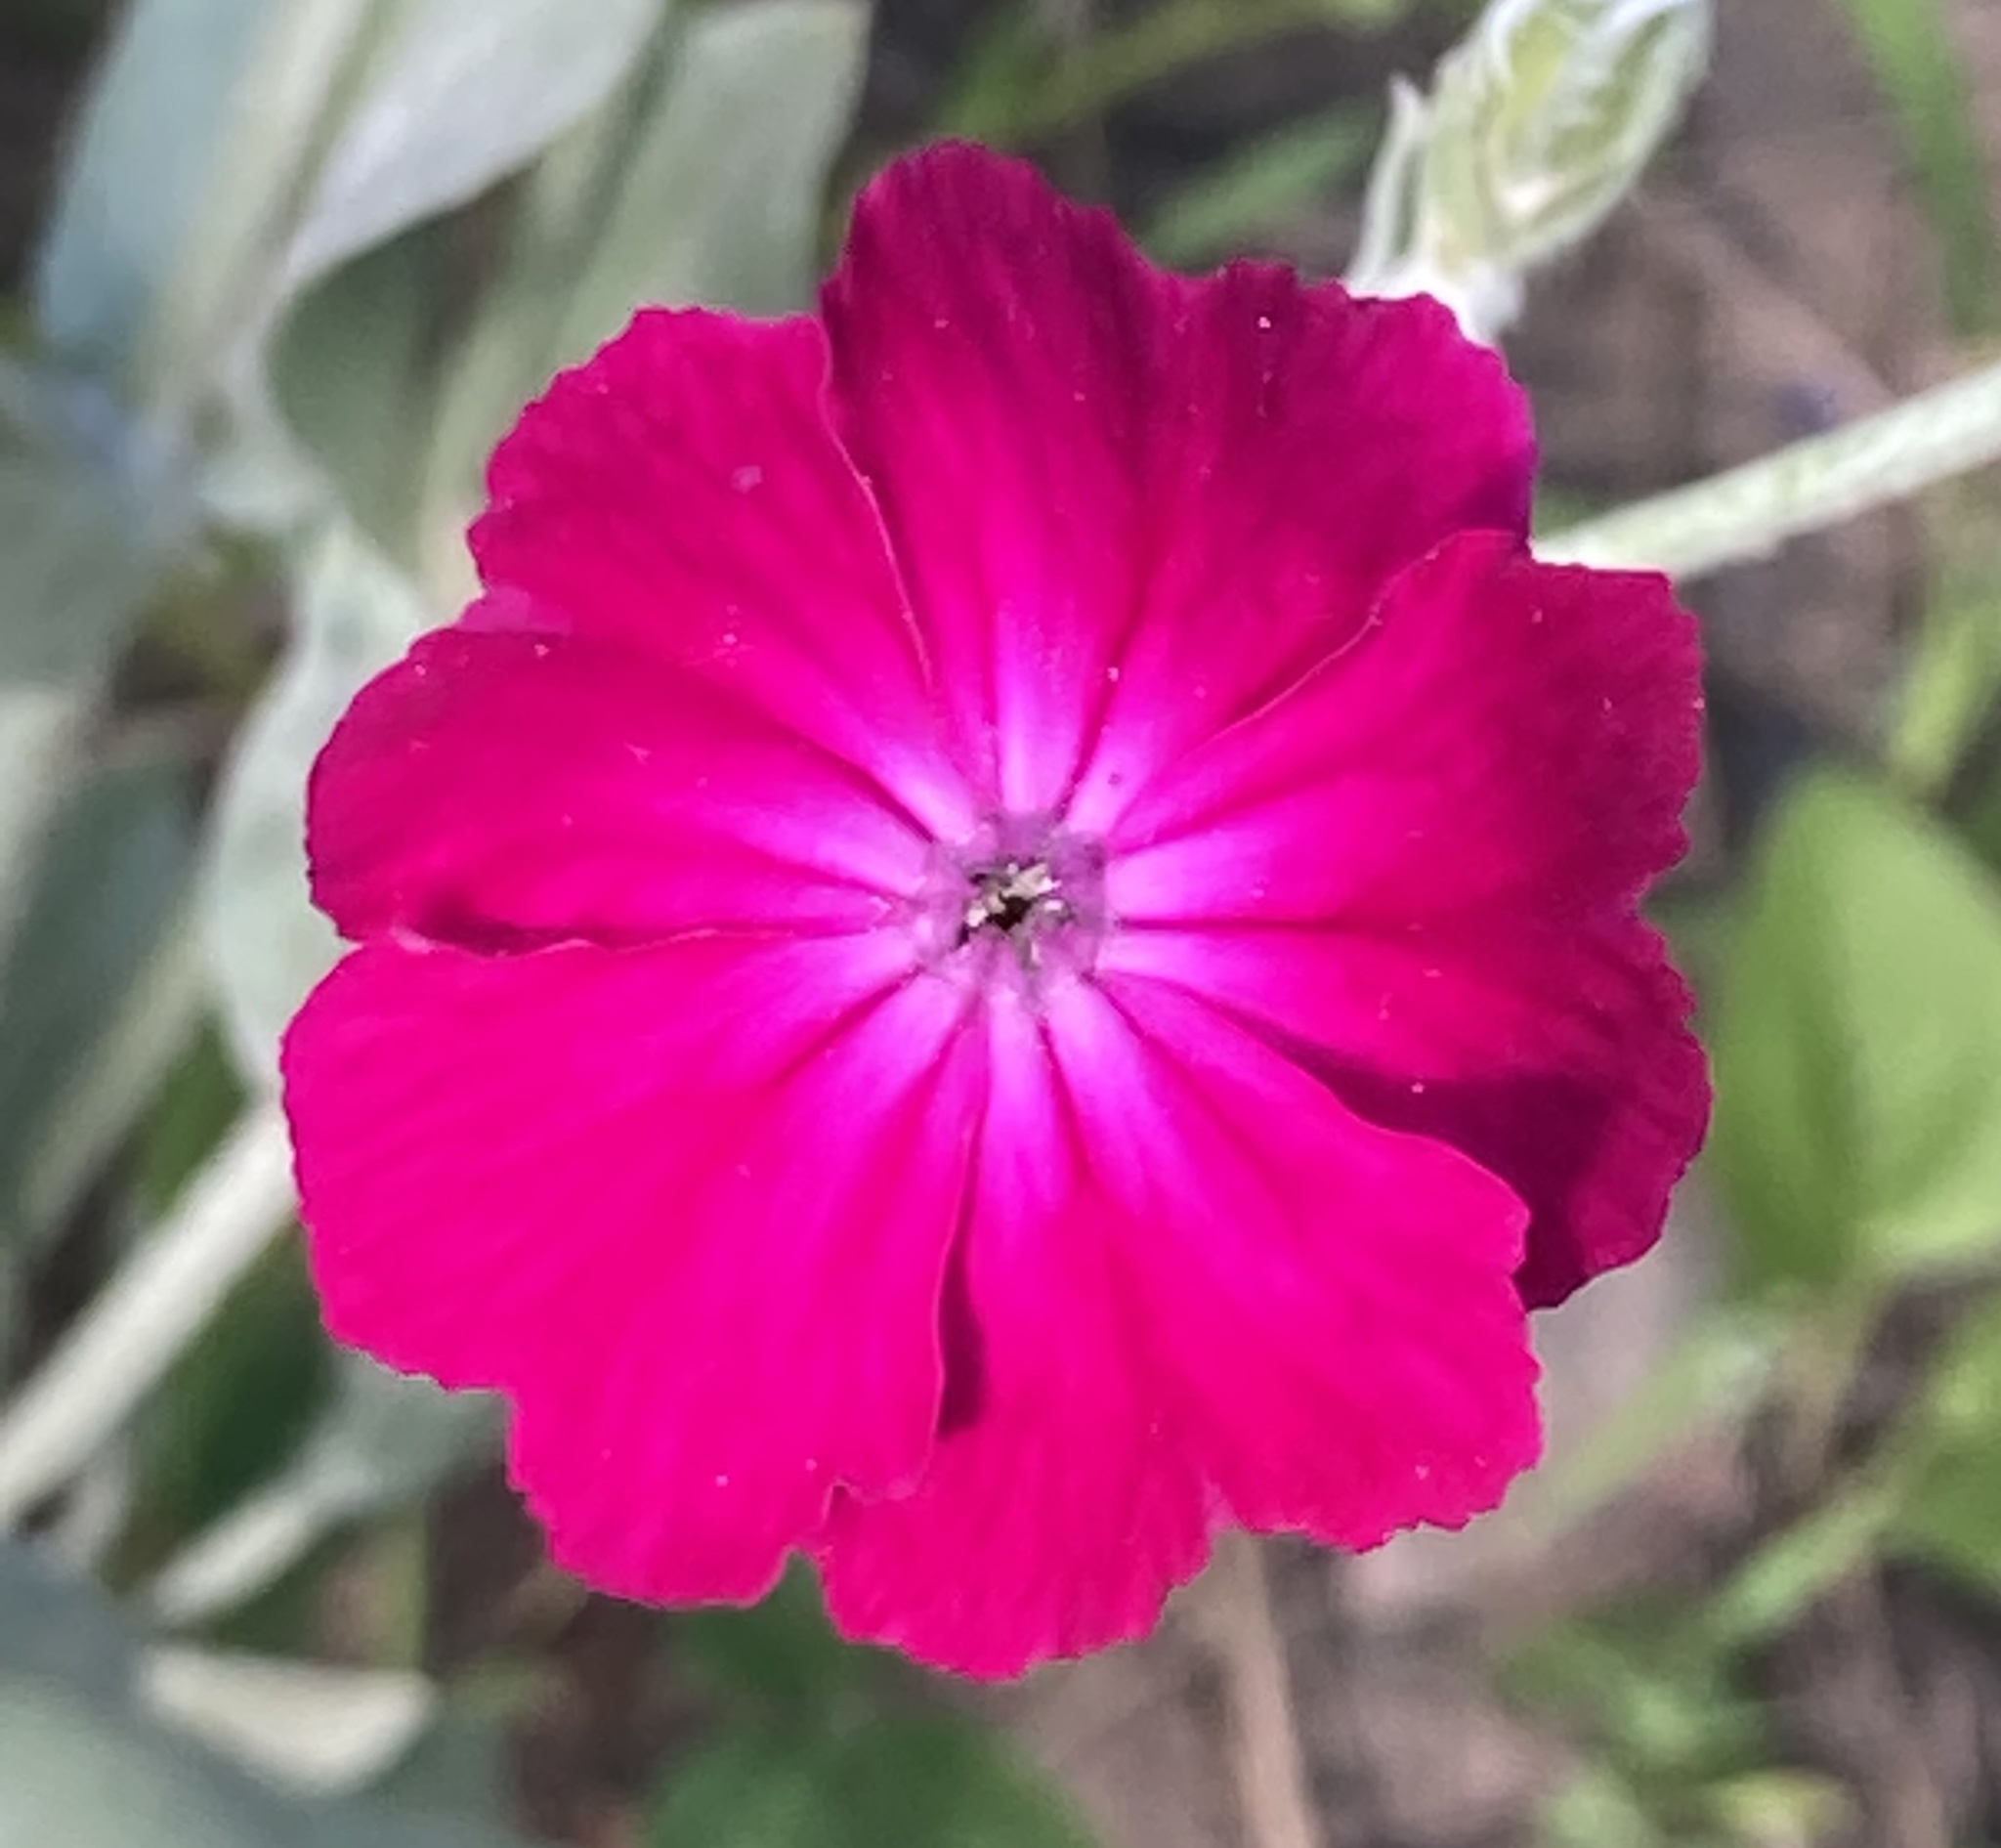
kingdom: Plantae
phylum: Tracheophyta
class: Magnoliopsida
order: Caryophyllales
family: Caryophyllaceae
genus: Silene
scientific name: Silene coronaria
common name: Rose campion
